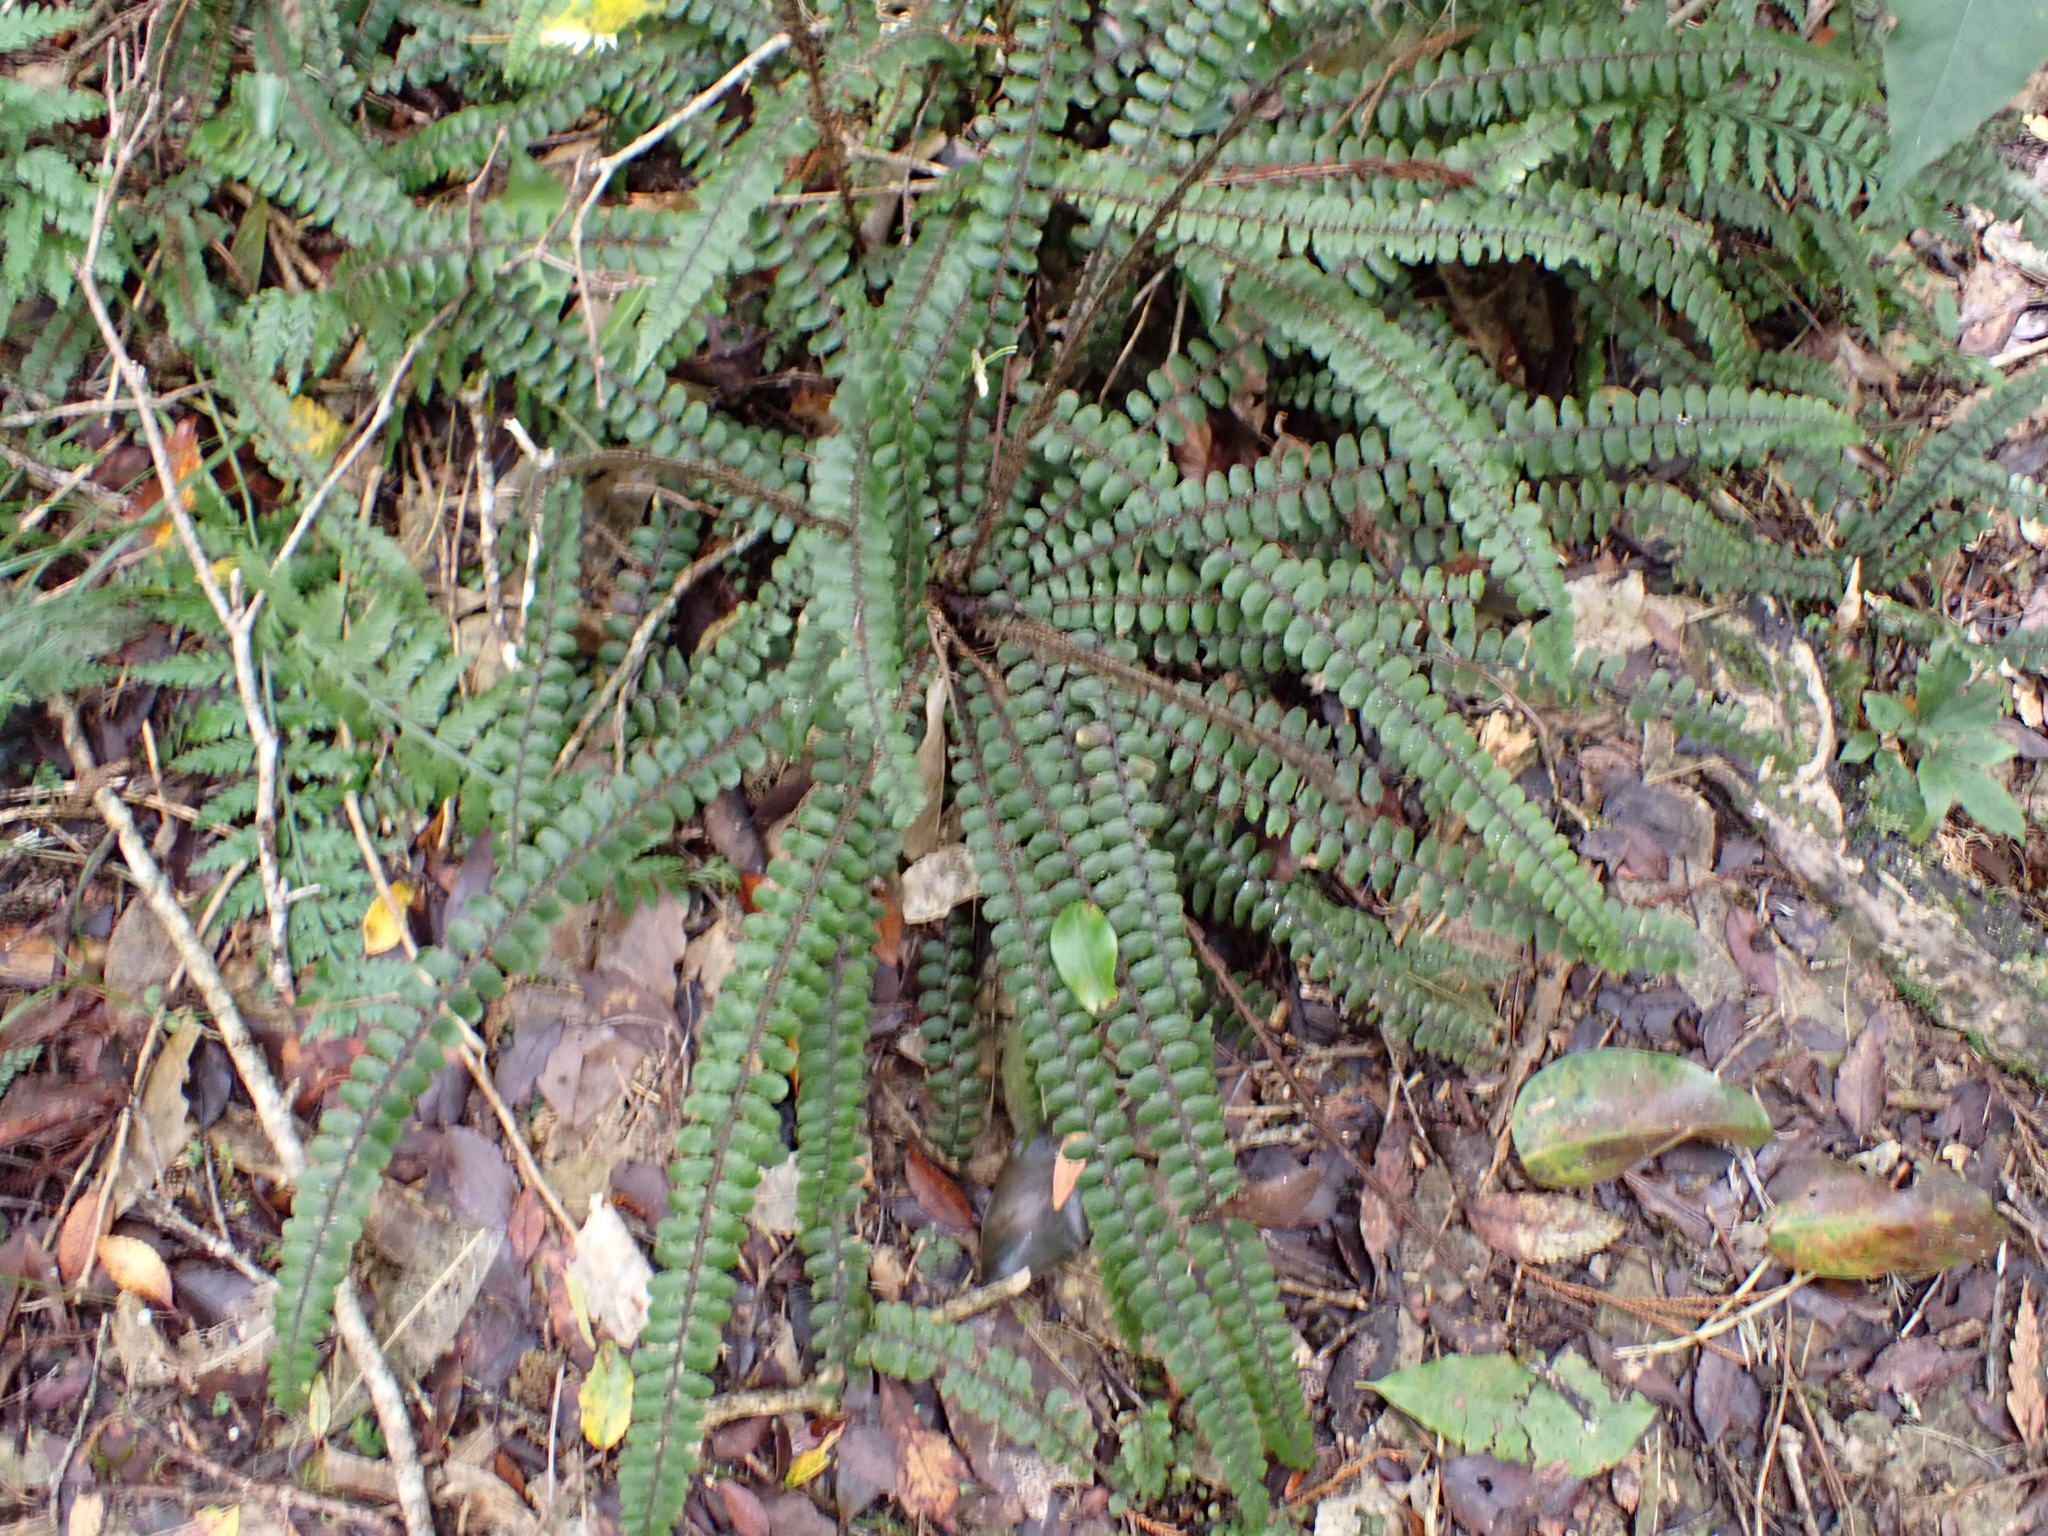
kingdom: Plantae
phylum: Tracheophyta
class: Polypodiopsida
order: Polypodiales
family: Blechnaceae
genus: Cranfillia
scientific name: Cranfillia fluviatilis
